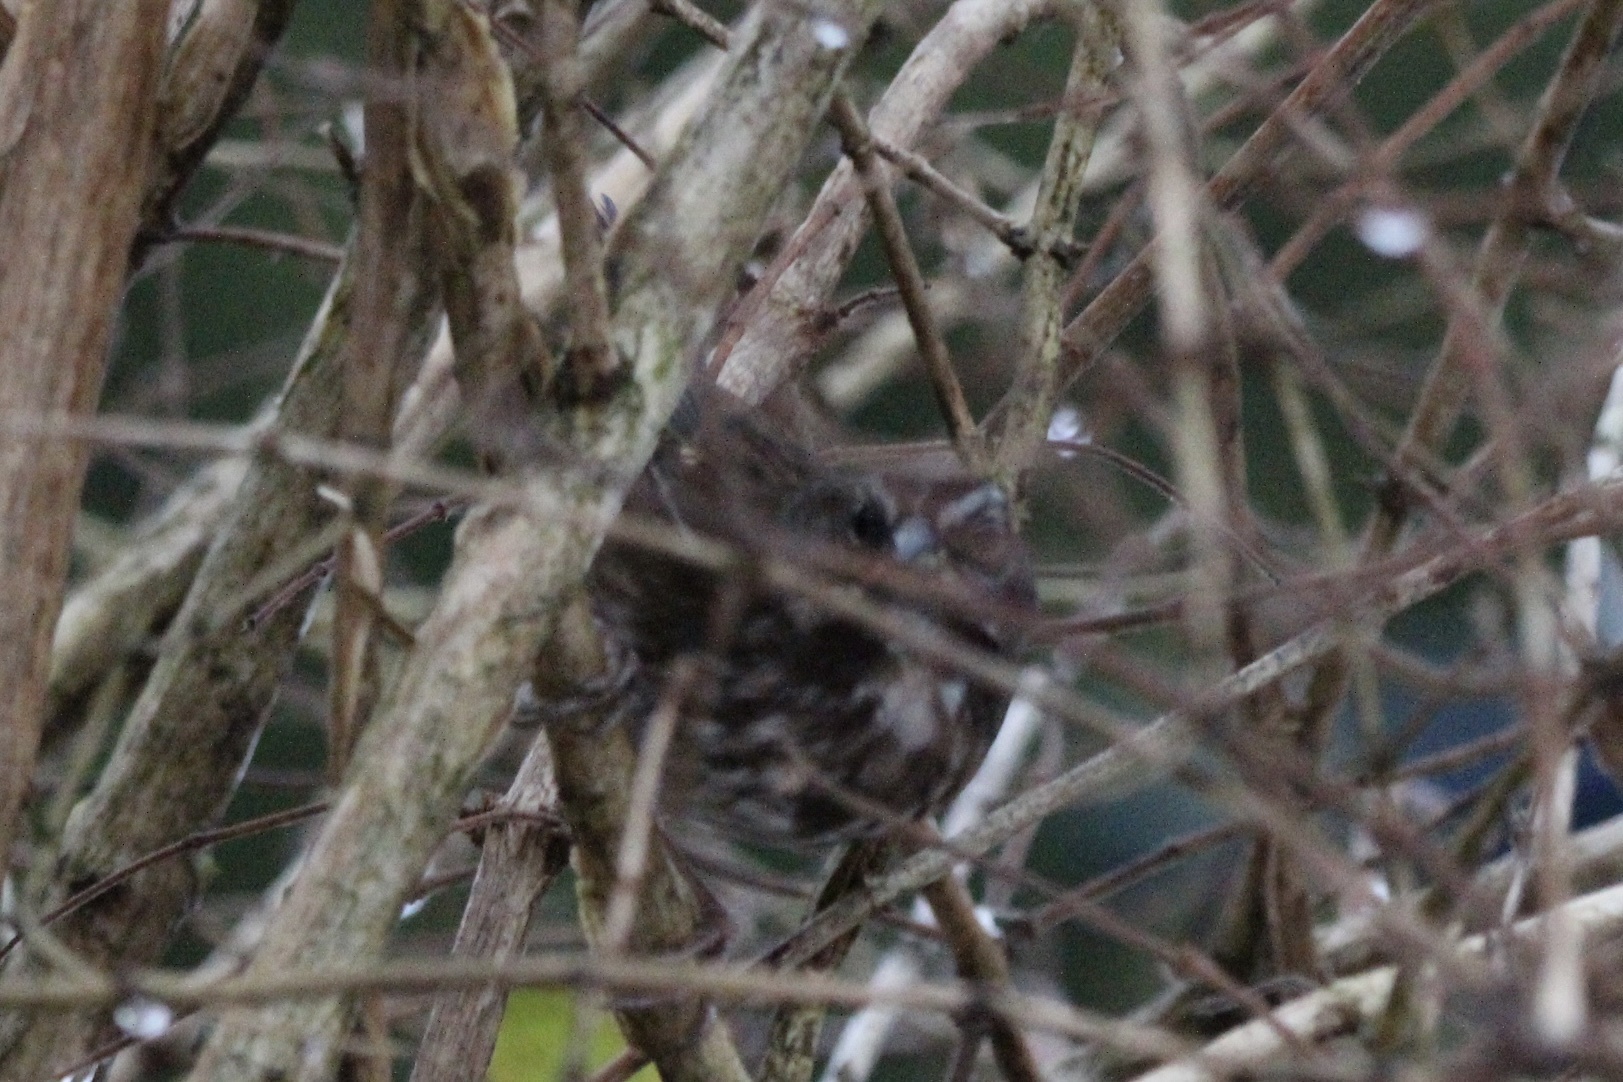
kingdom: Animalia
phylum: Chordata
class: Aves
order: Passeriformes
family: Passerellidae
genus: Melospiza
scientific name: Melospiza melodia
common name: Song sparrow
